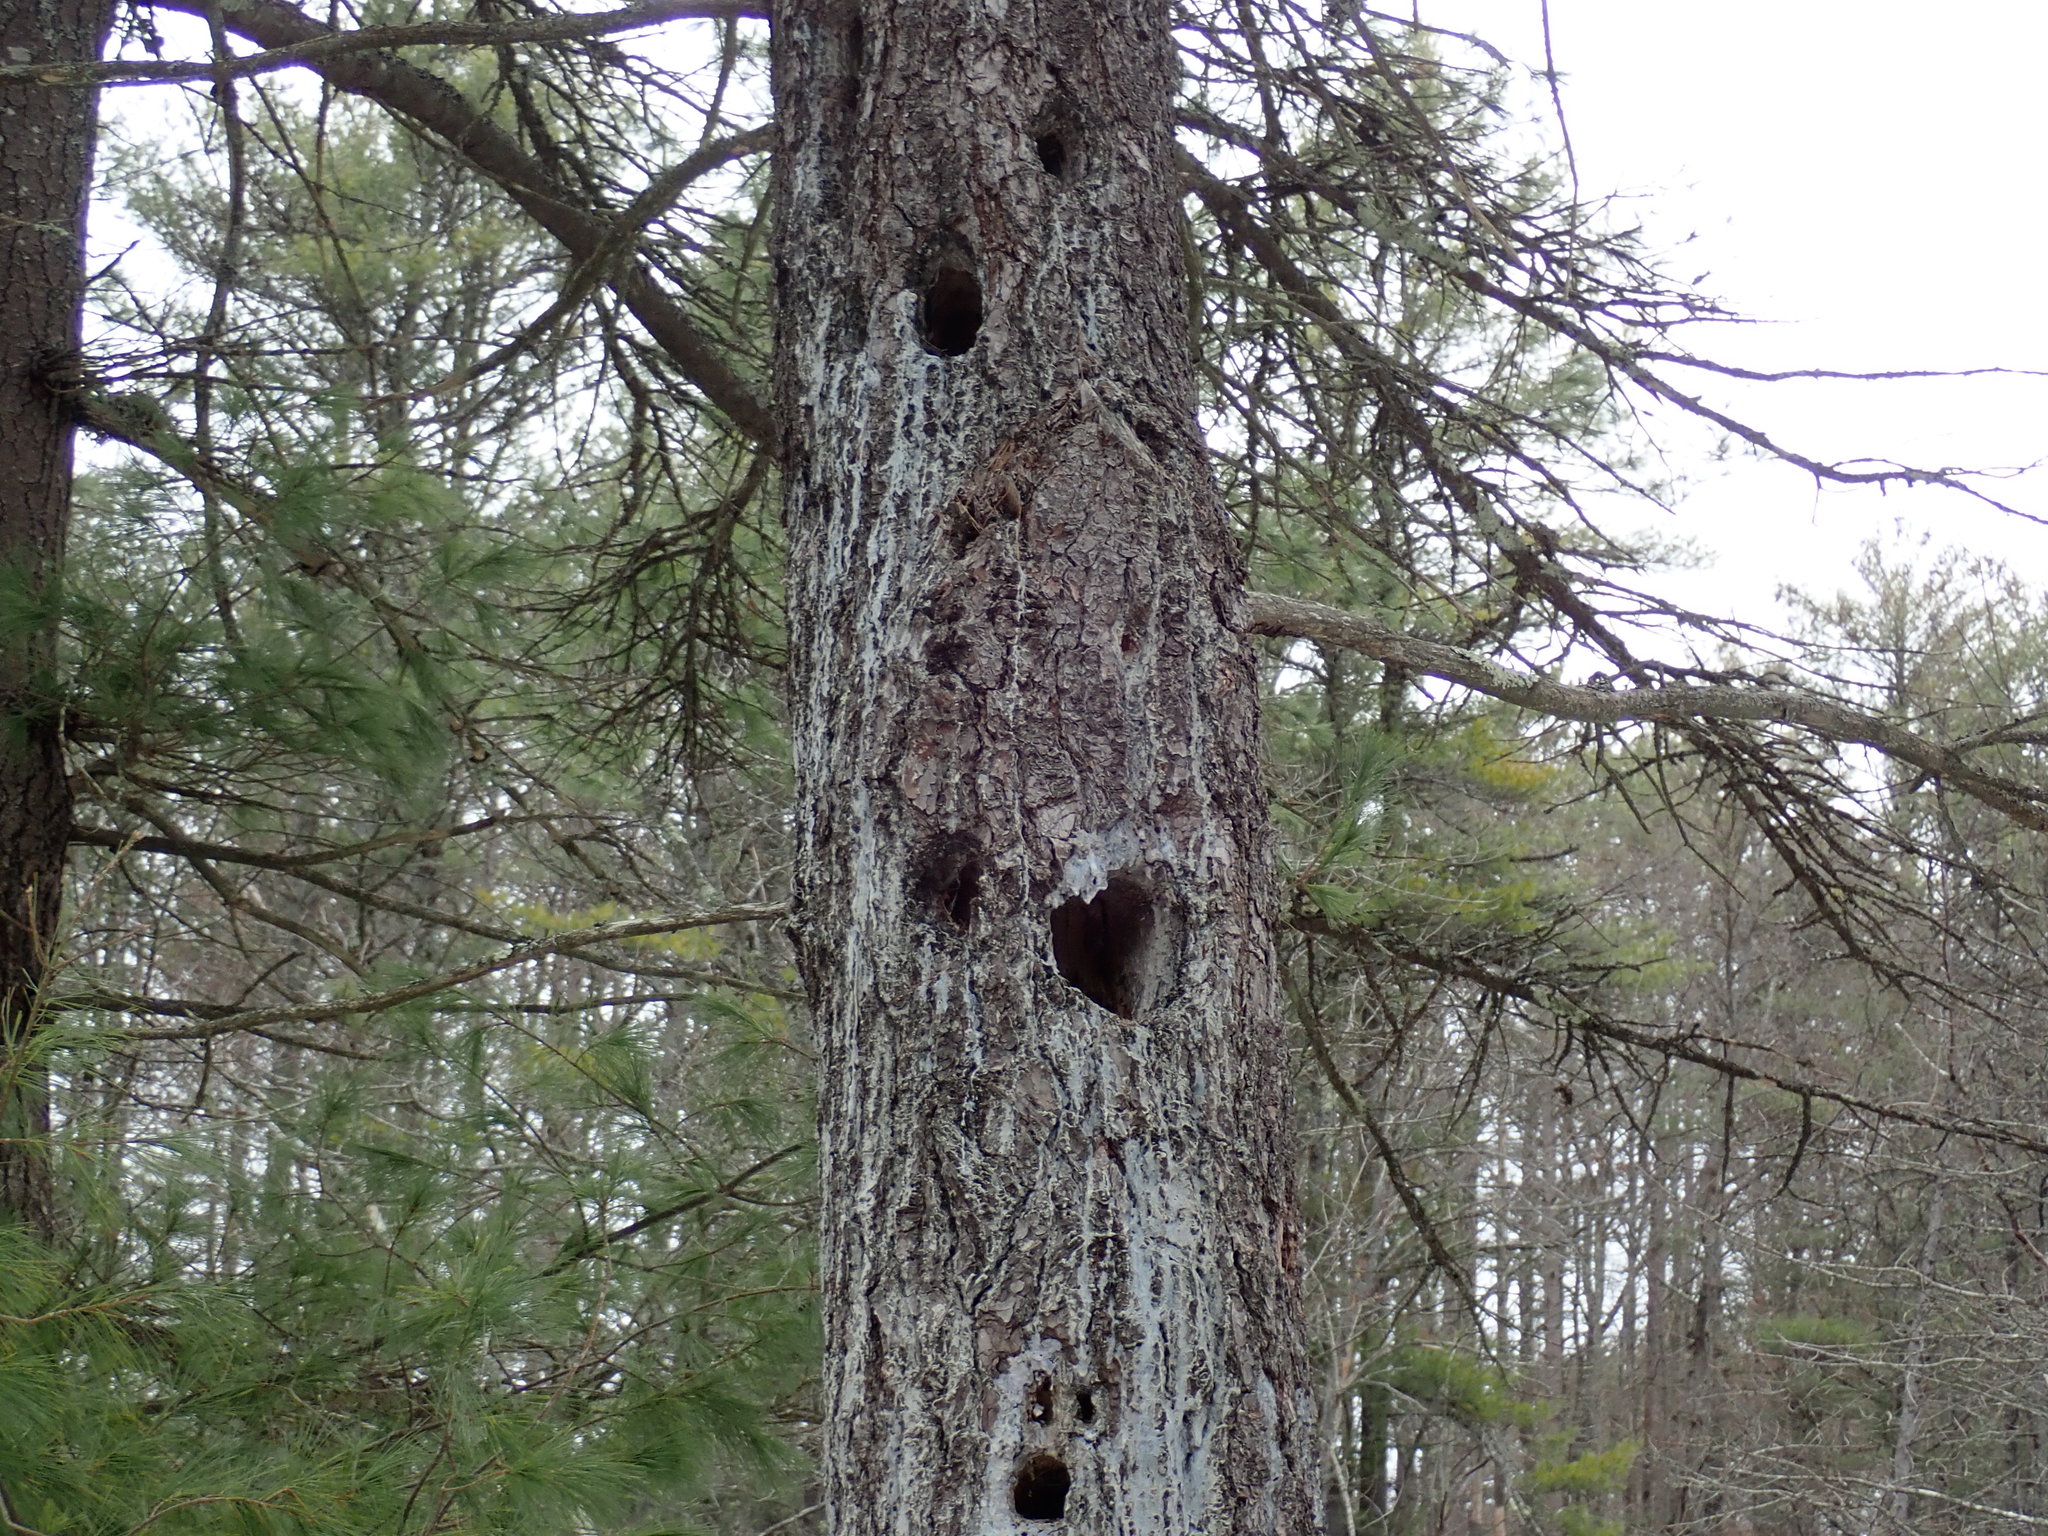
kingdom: Animalia
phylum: Chordata
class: Aves
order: Piciformes
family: Picidae
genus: Dryocopus
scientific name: Dryocopus pileatus
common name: Pileated woodpecker
